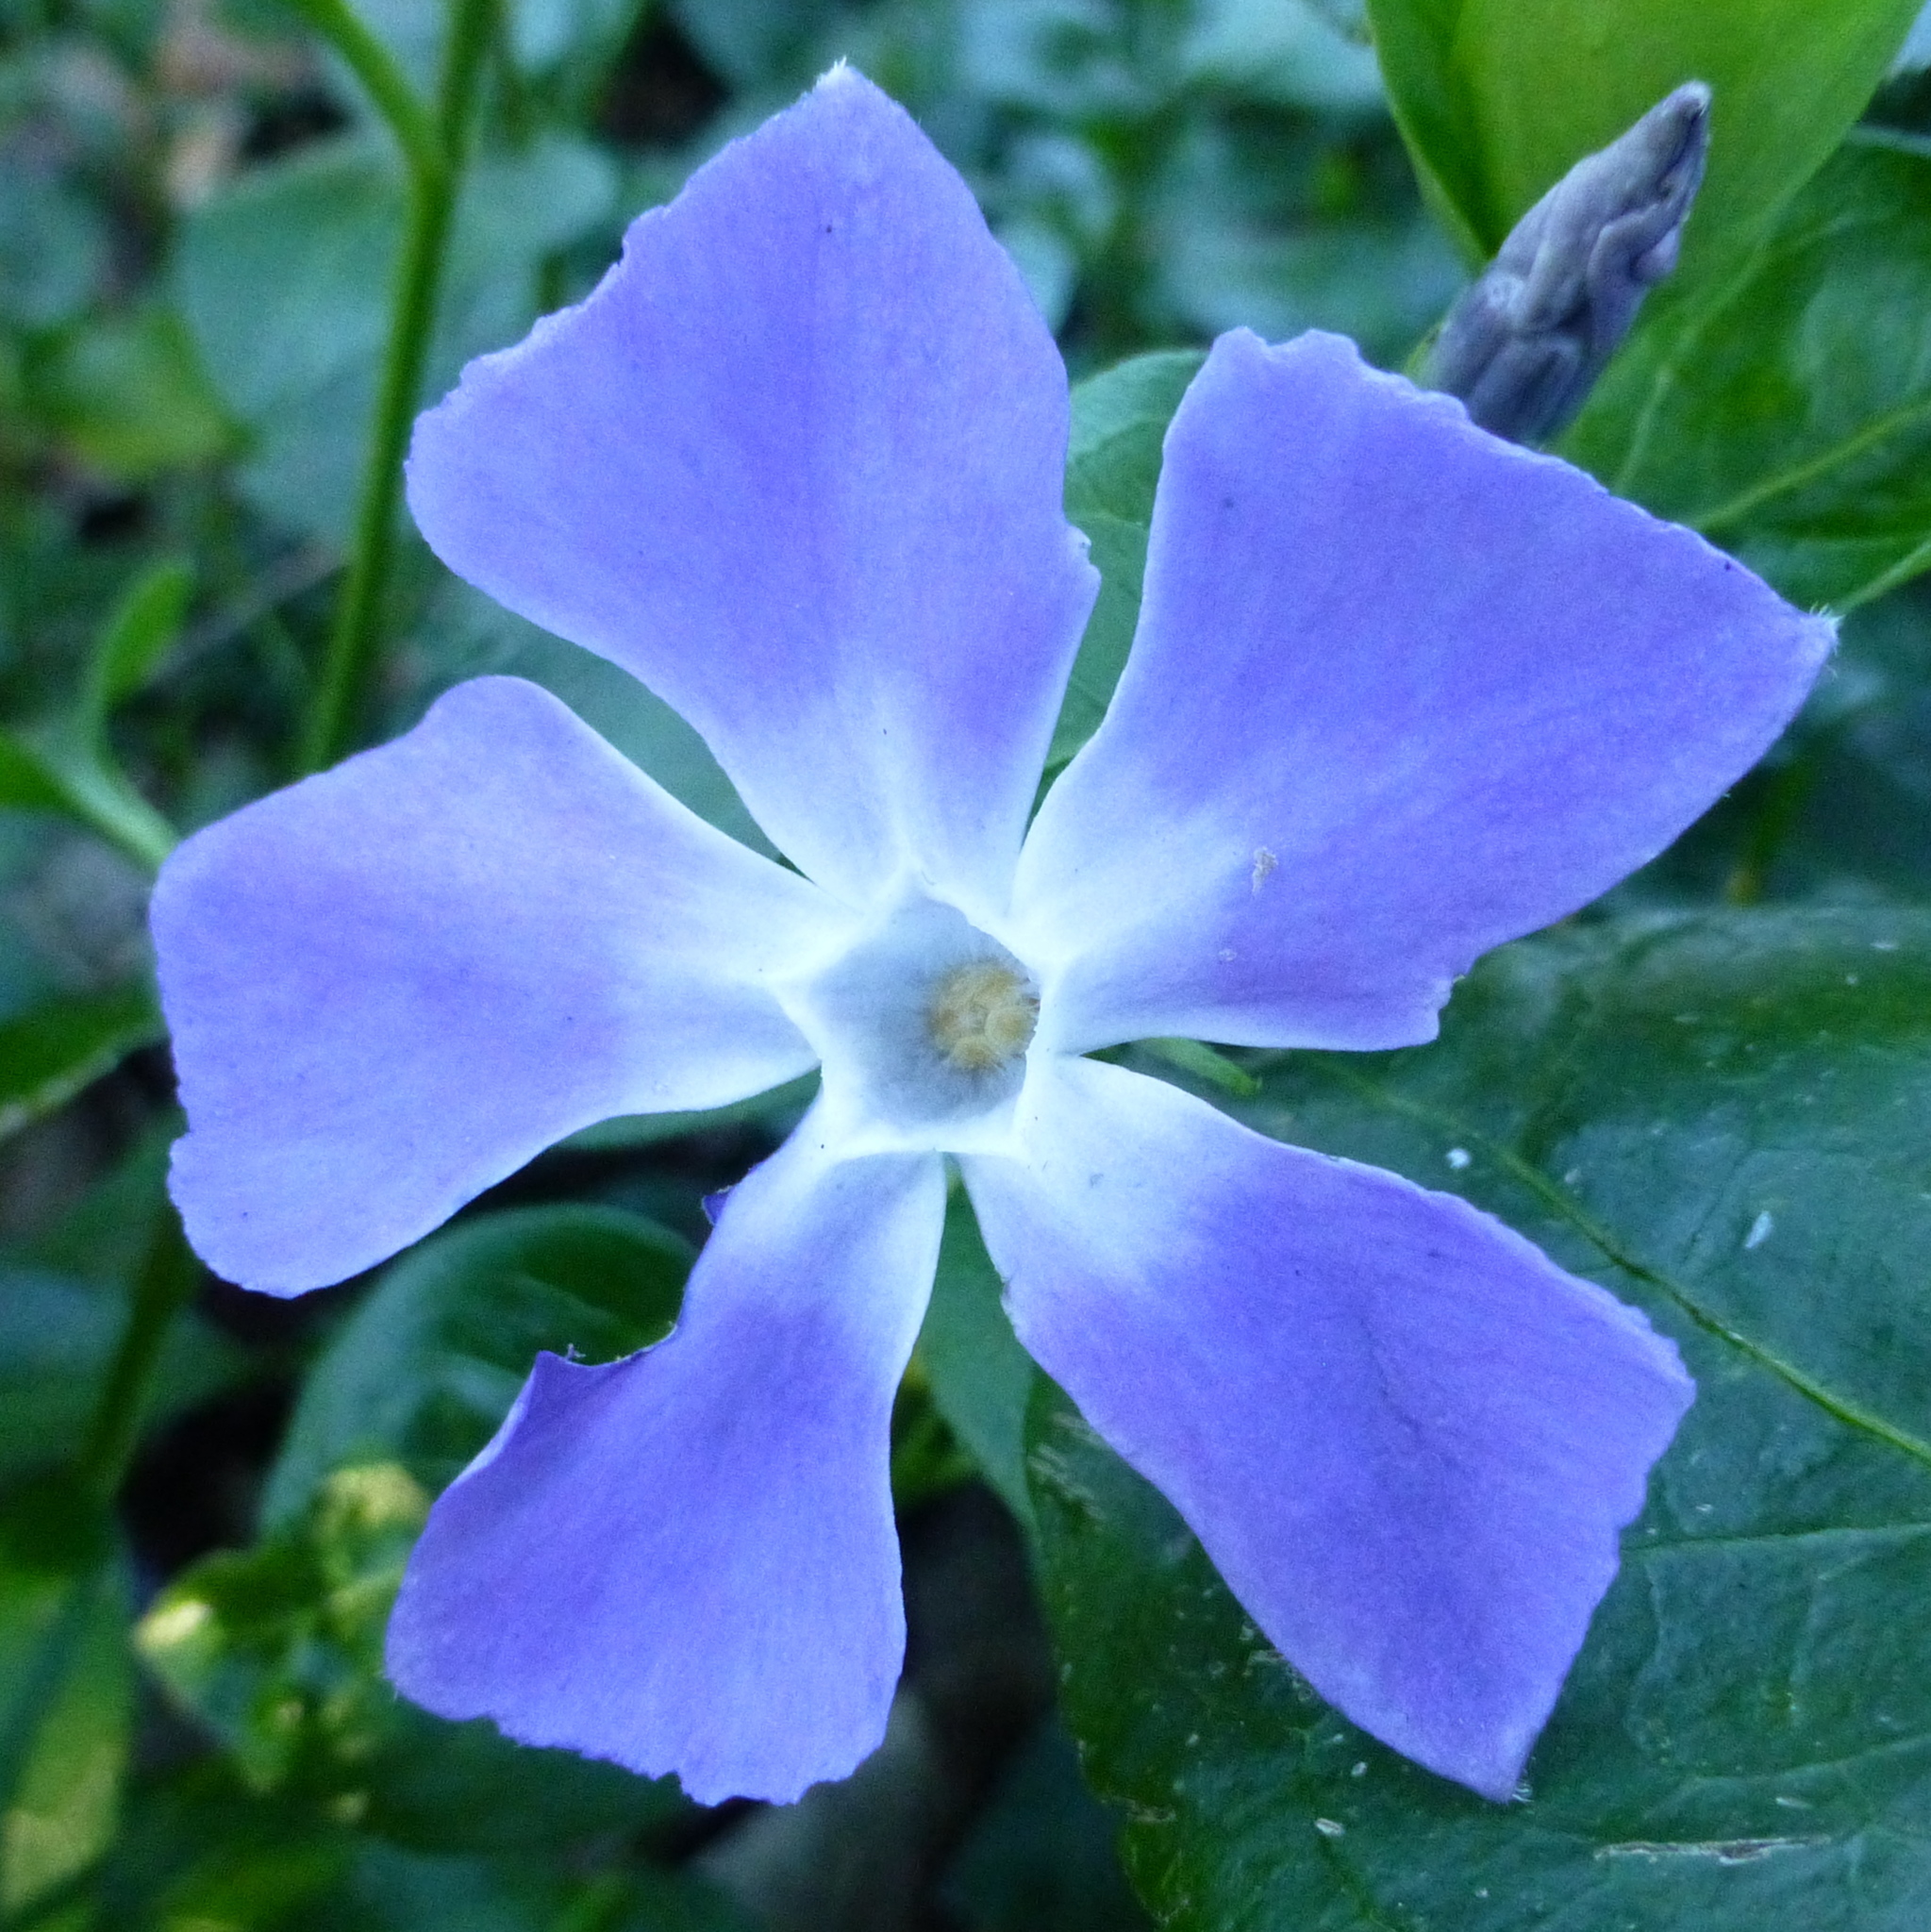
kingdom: Plantae
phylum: Tracheophyta
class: Magnoliopsida
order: Gentianales
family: Apocynaceae
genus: Vinca
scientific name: Vinca major
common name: Greater periwinkle
